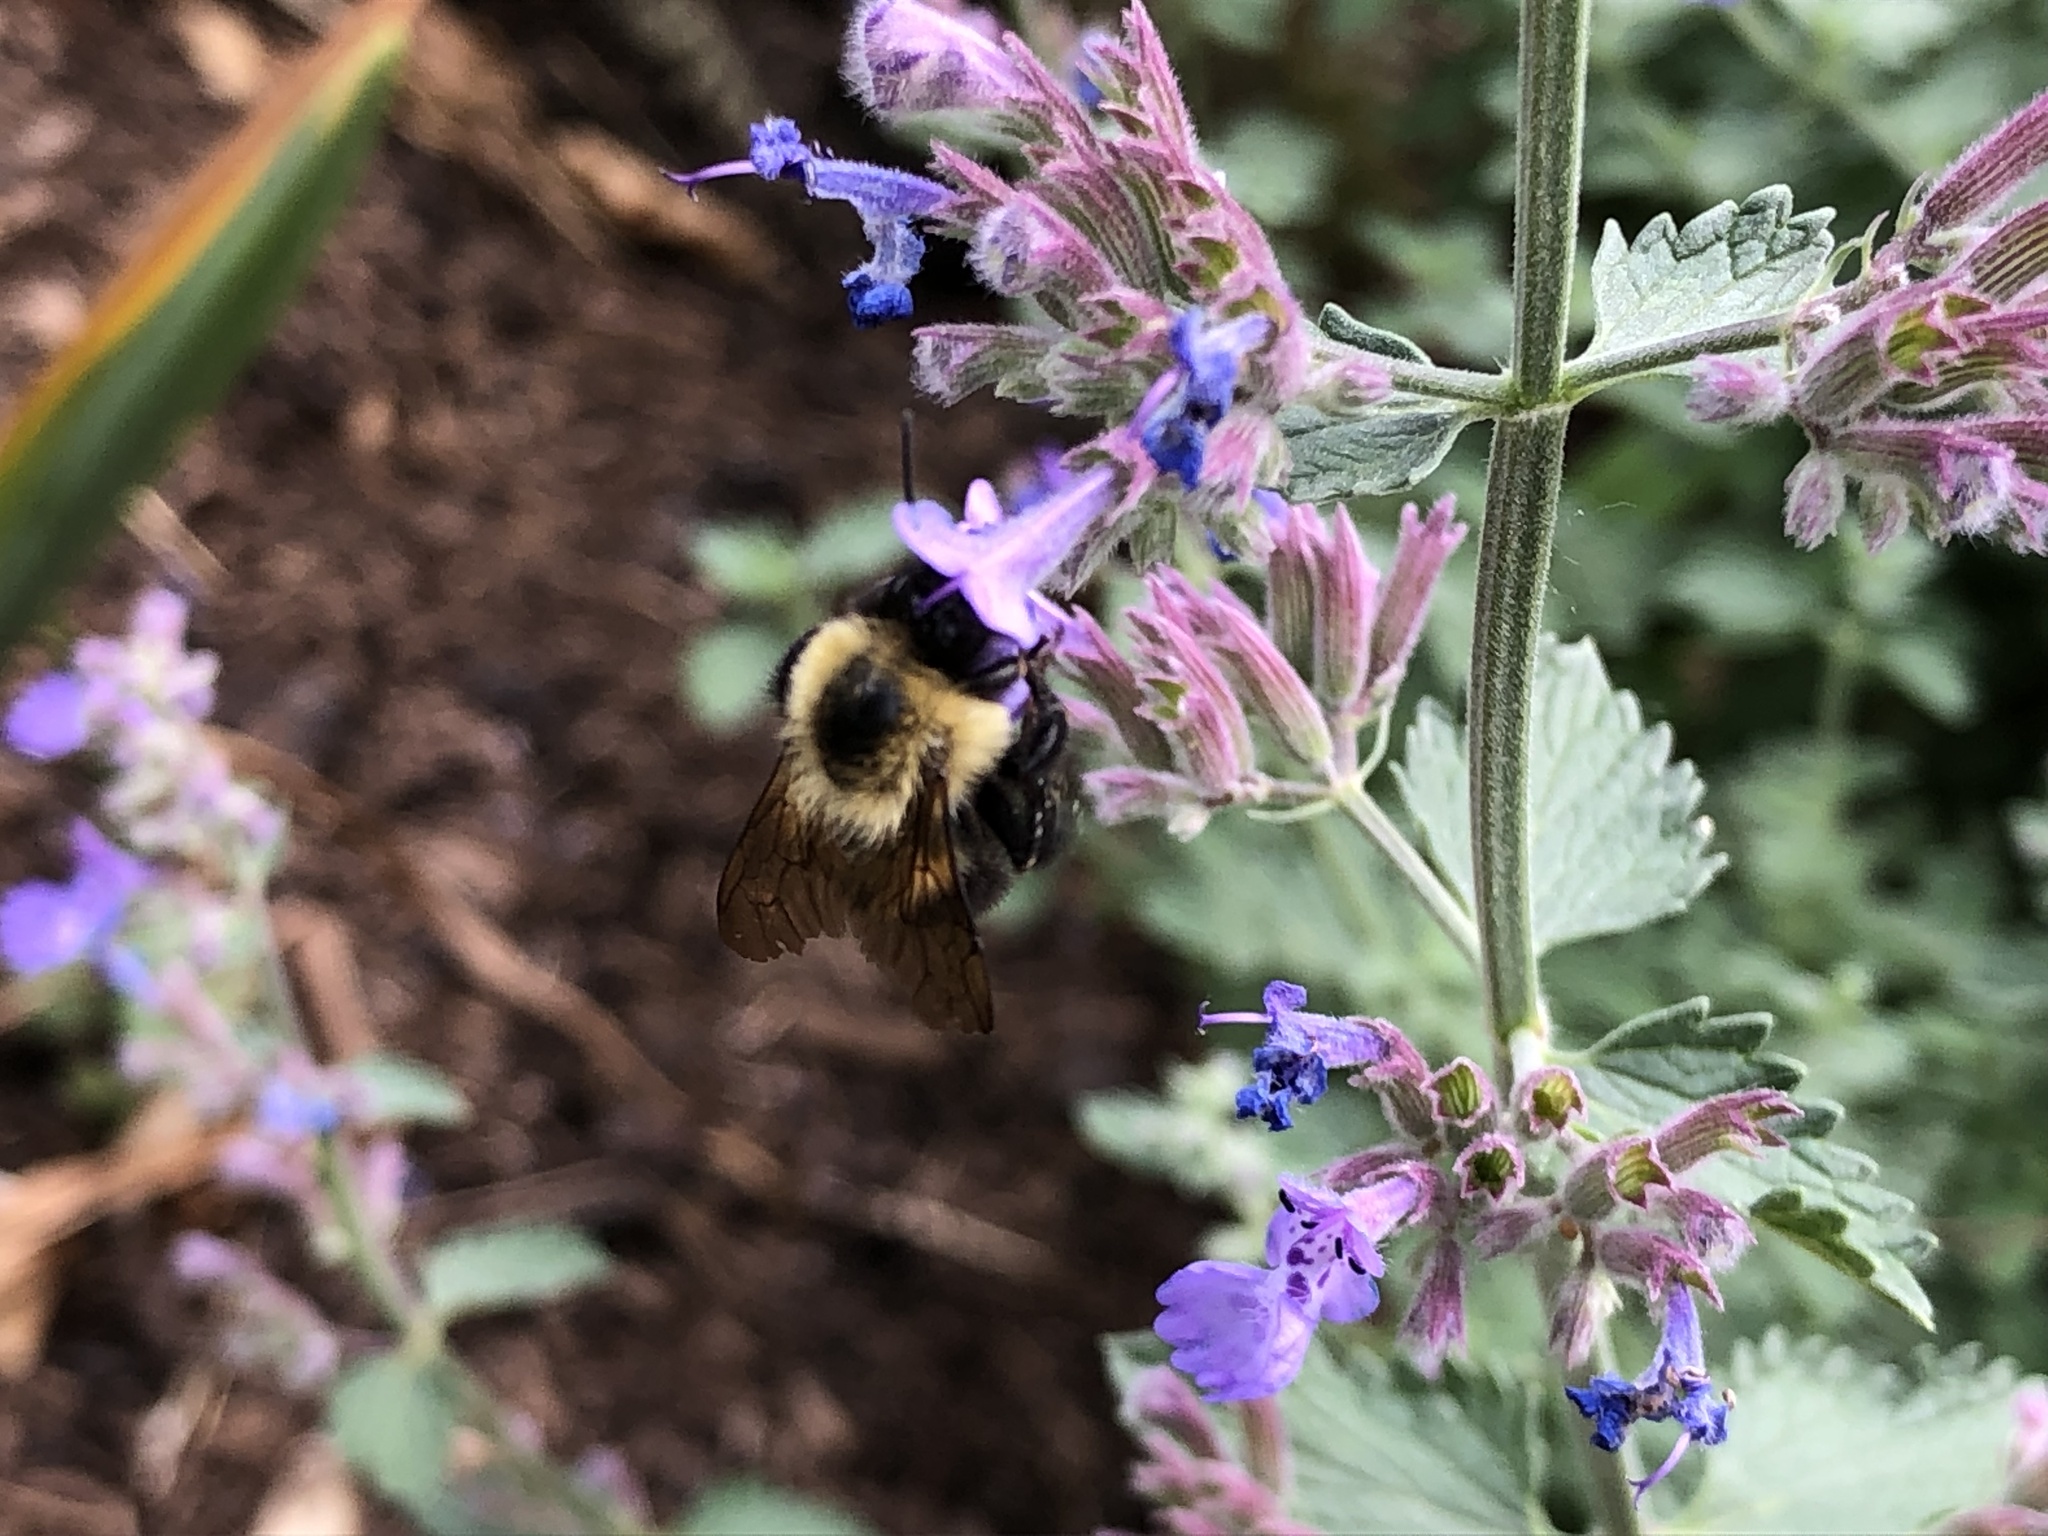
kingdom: Animalia
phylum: Arthropoda
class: Insecta
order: Hymenoptera
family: Apidae
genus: Bombus
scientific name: Bombus bimaculatus
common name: Two-spotted bumble bee
